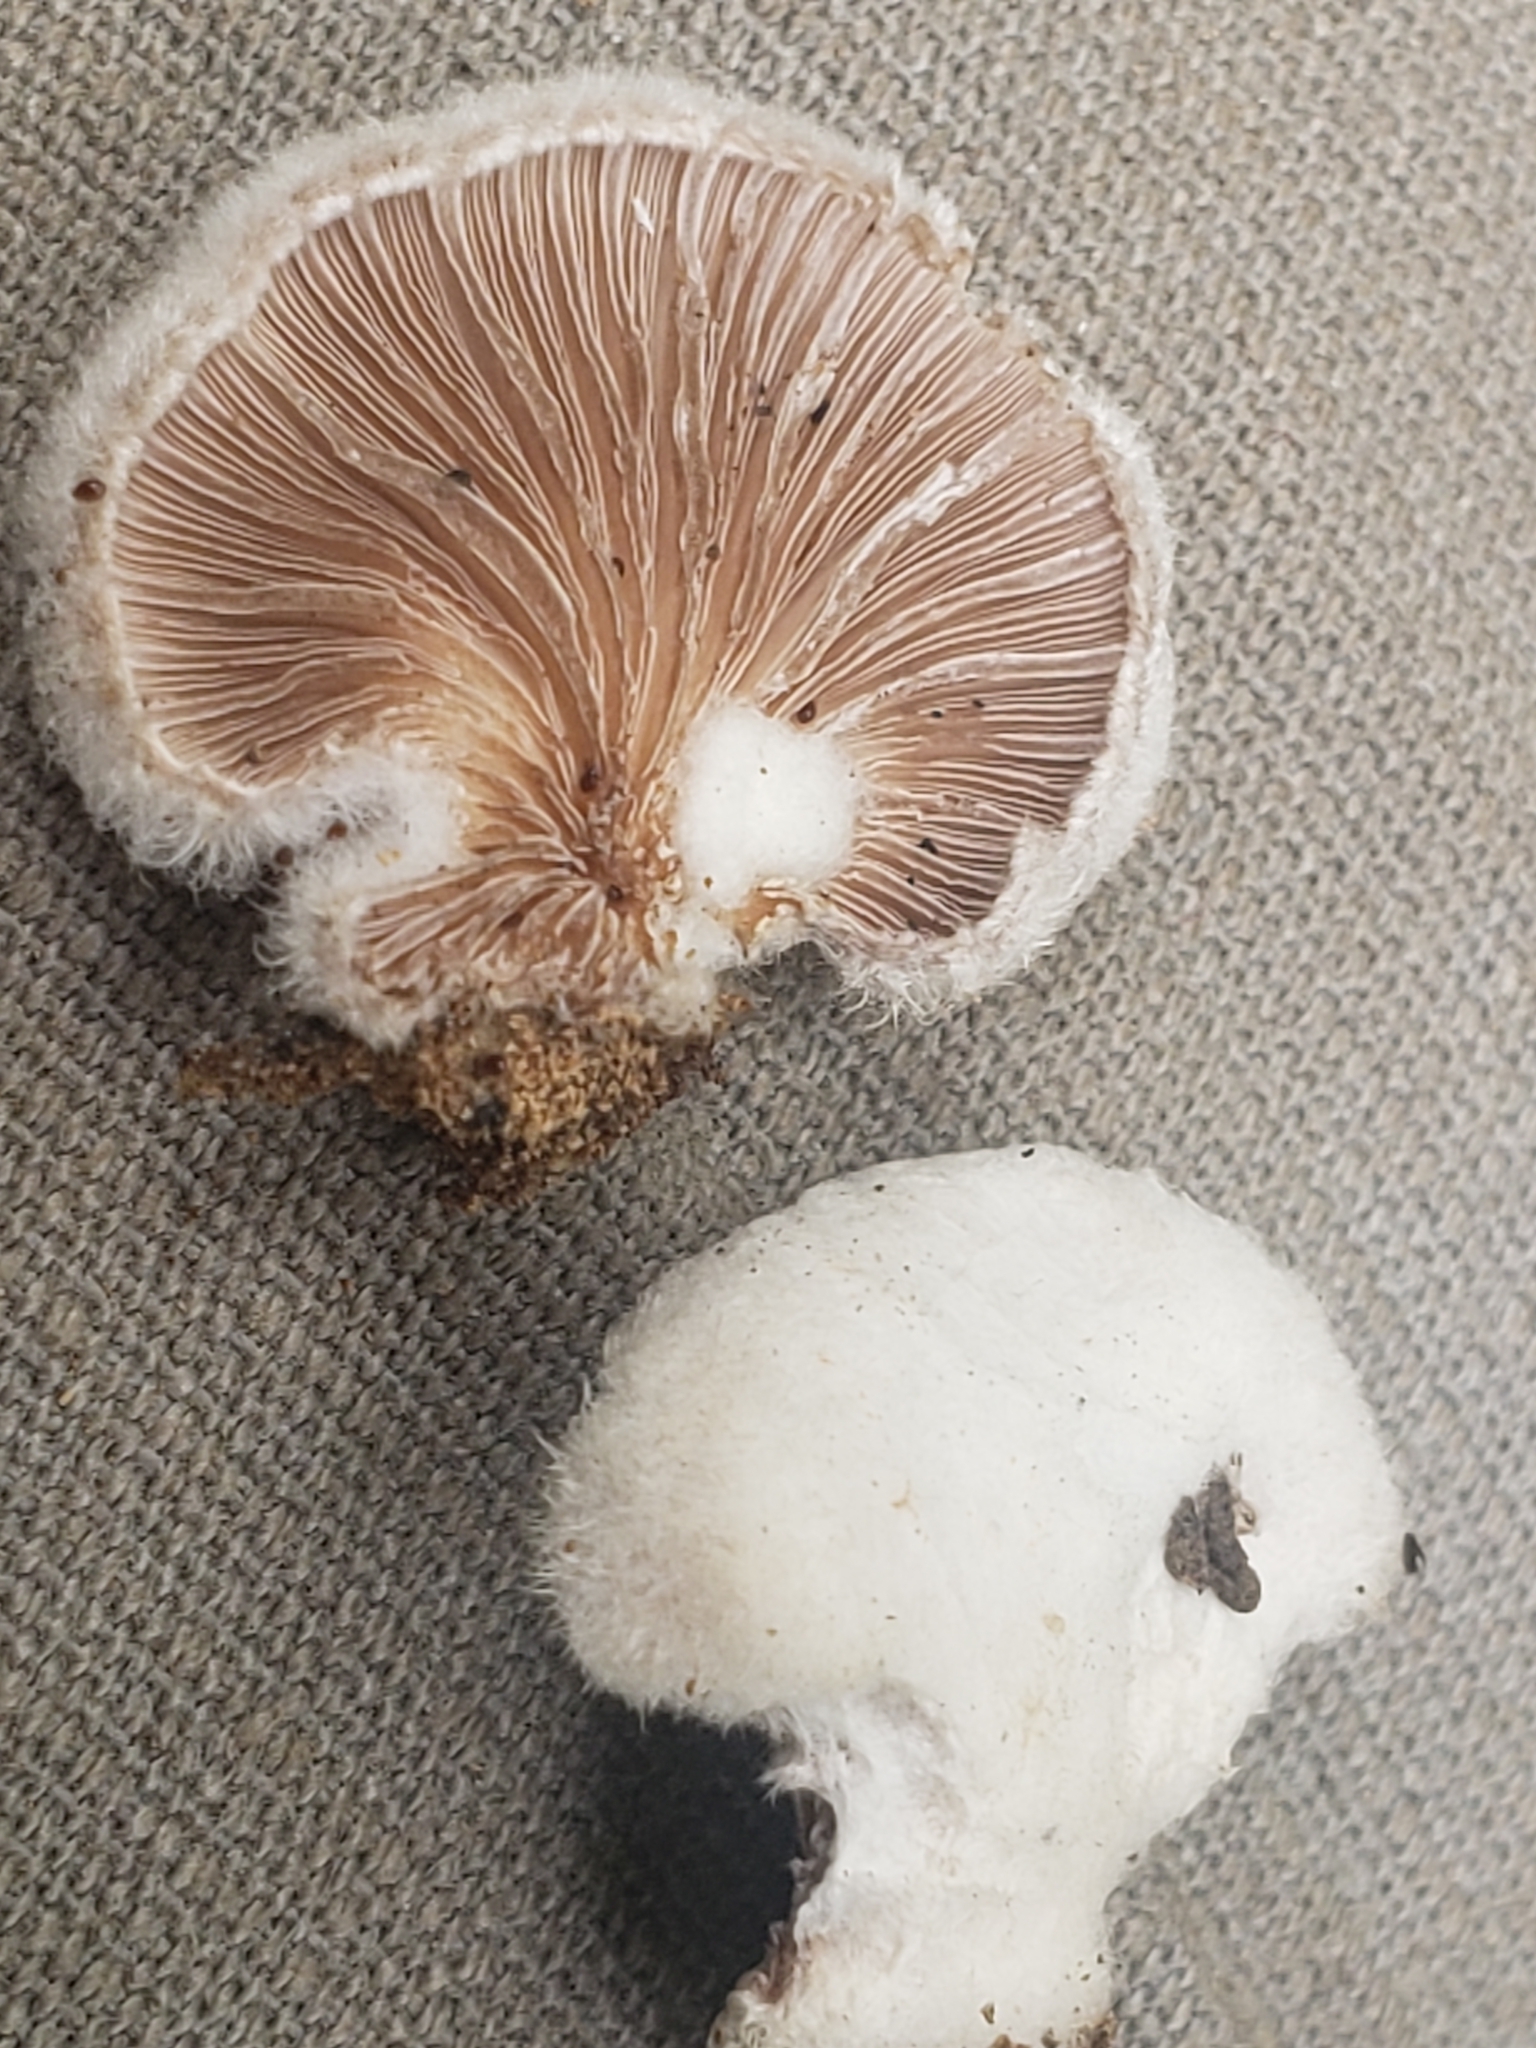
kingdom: Fungi
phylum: Basidiomycota
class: Agaricomycetes
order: Agaricales
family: Schizophyllaceae
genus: Schizophyllum
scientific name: Schizophyllum commune
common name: Common porecrust
